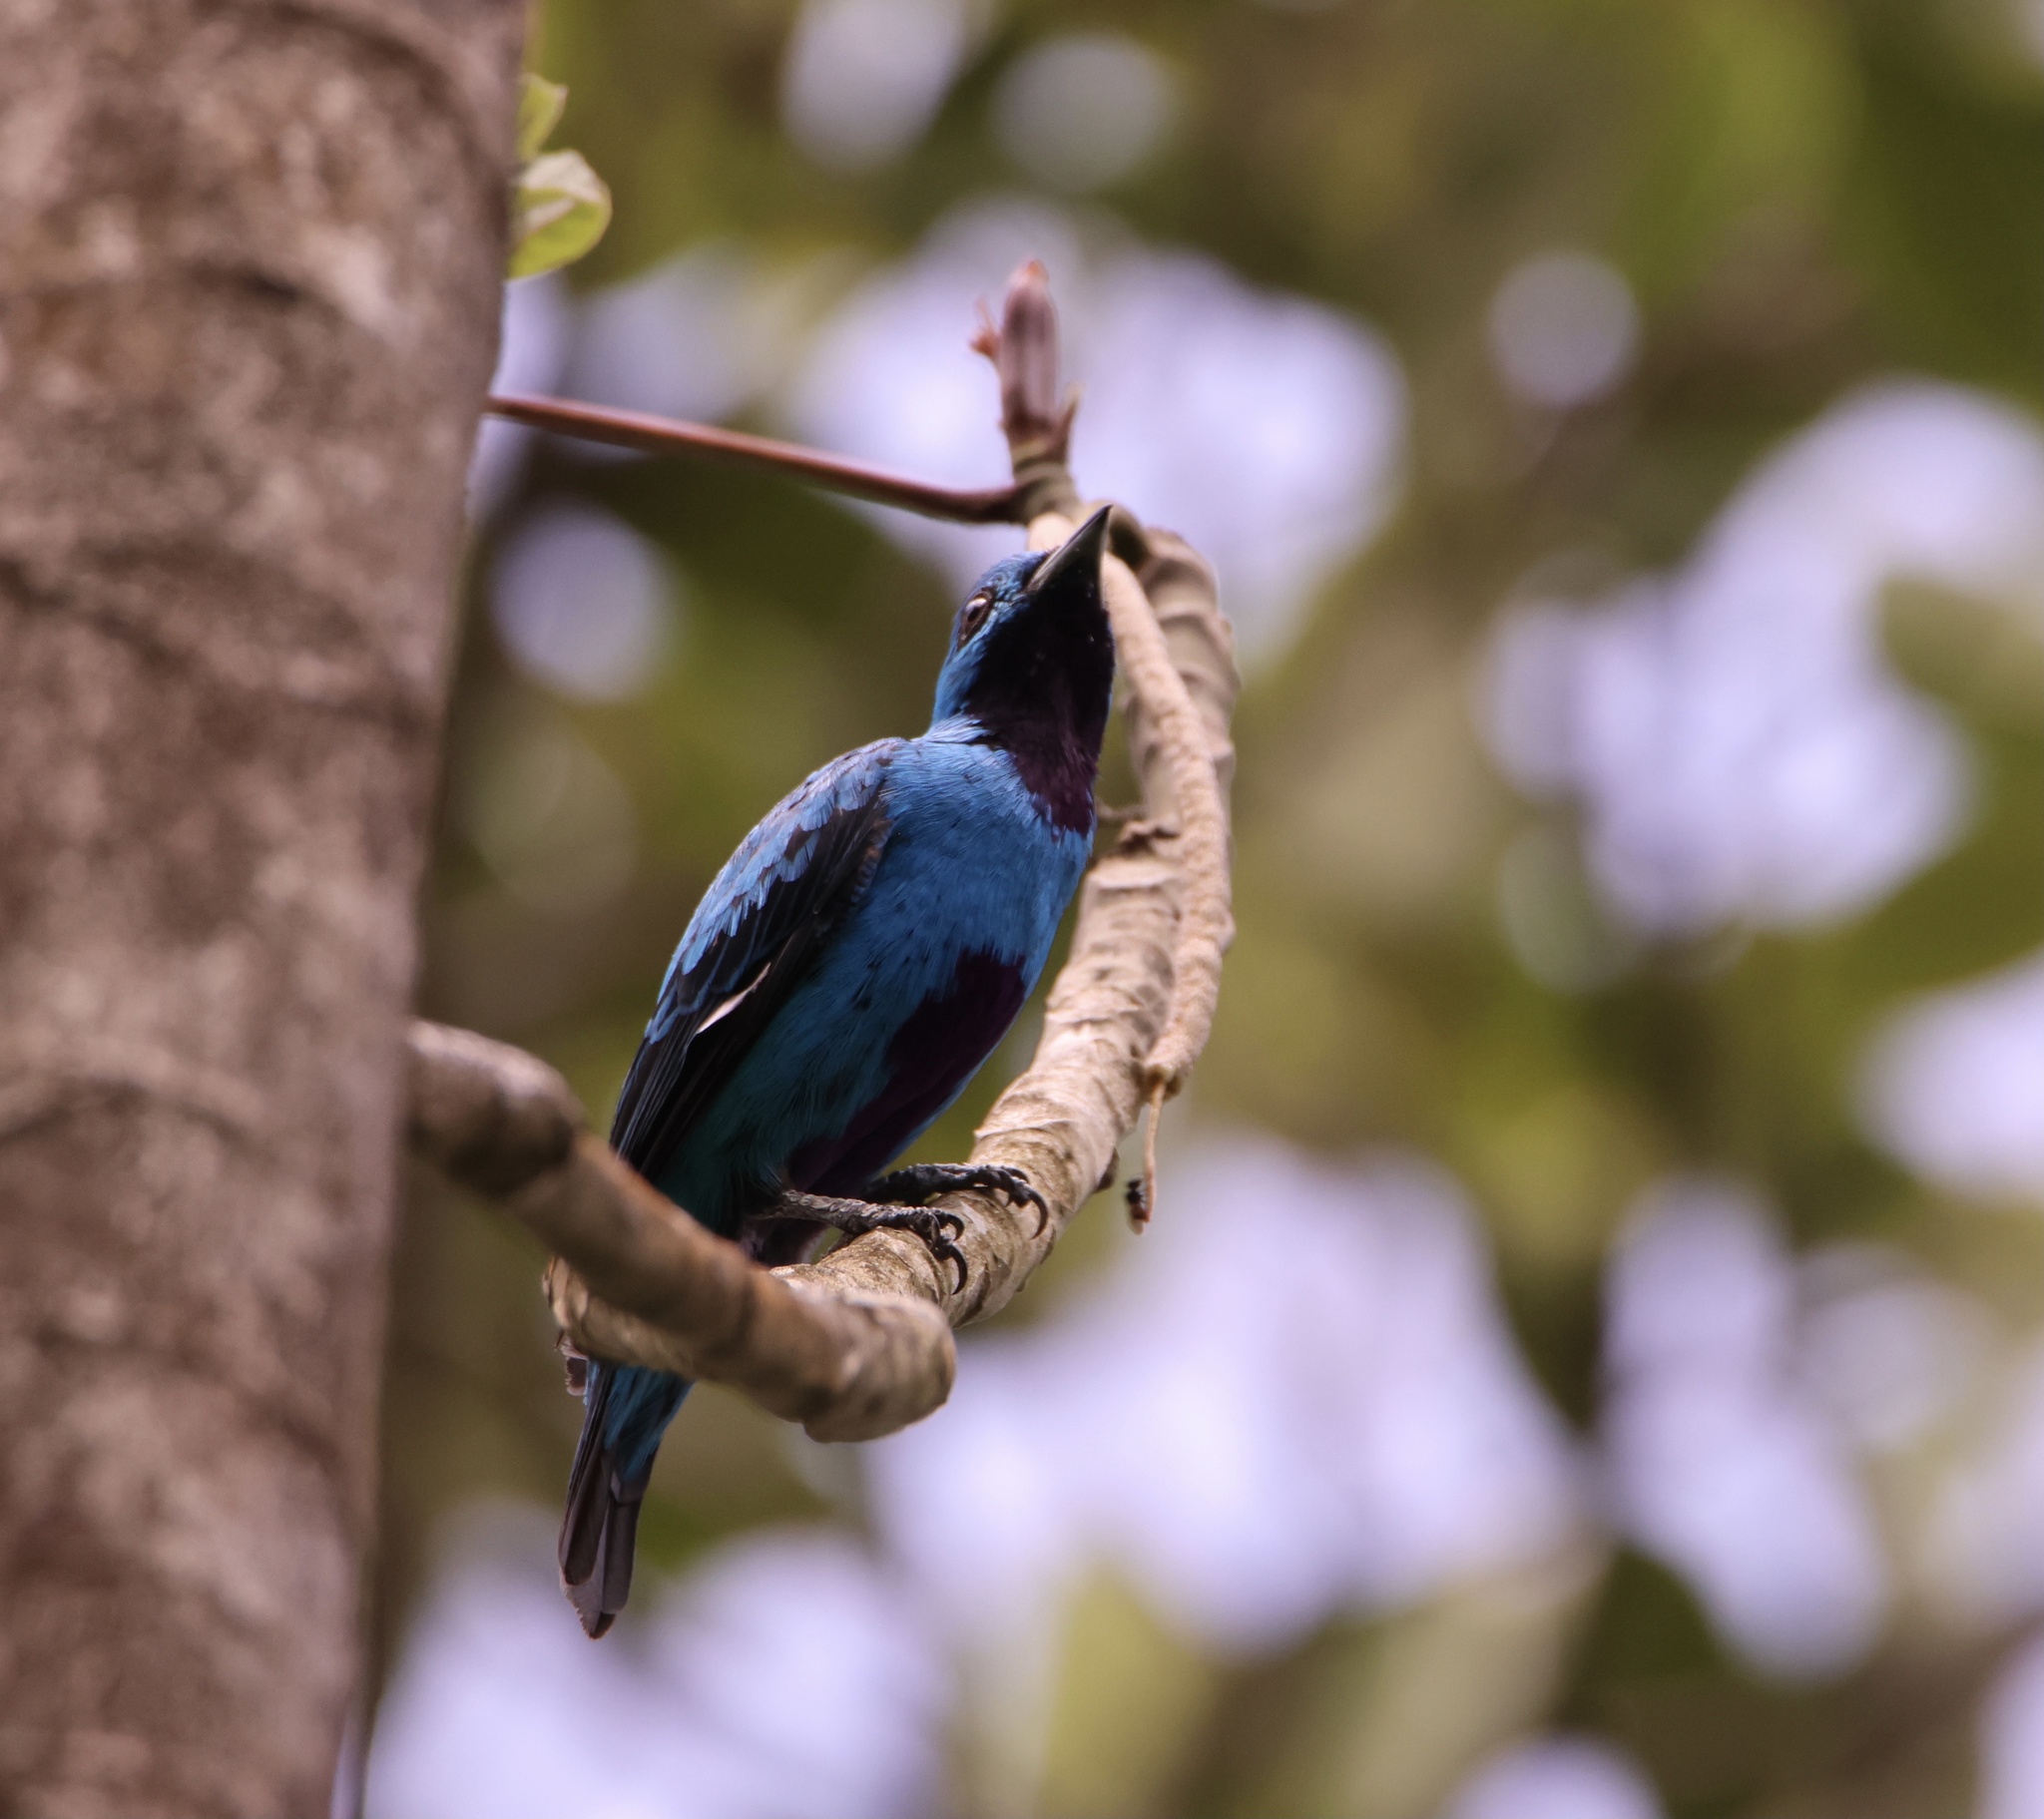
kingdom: Animalia
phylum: Chordata
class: Aves
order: Passeriformes
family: Cotingidae
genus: Cotinga
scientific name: Cotinga nattererii
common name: Blue cotinga
